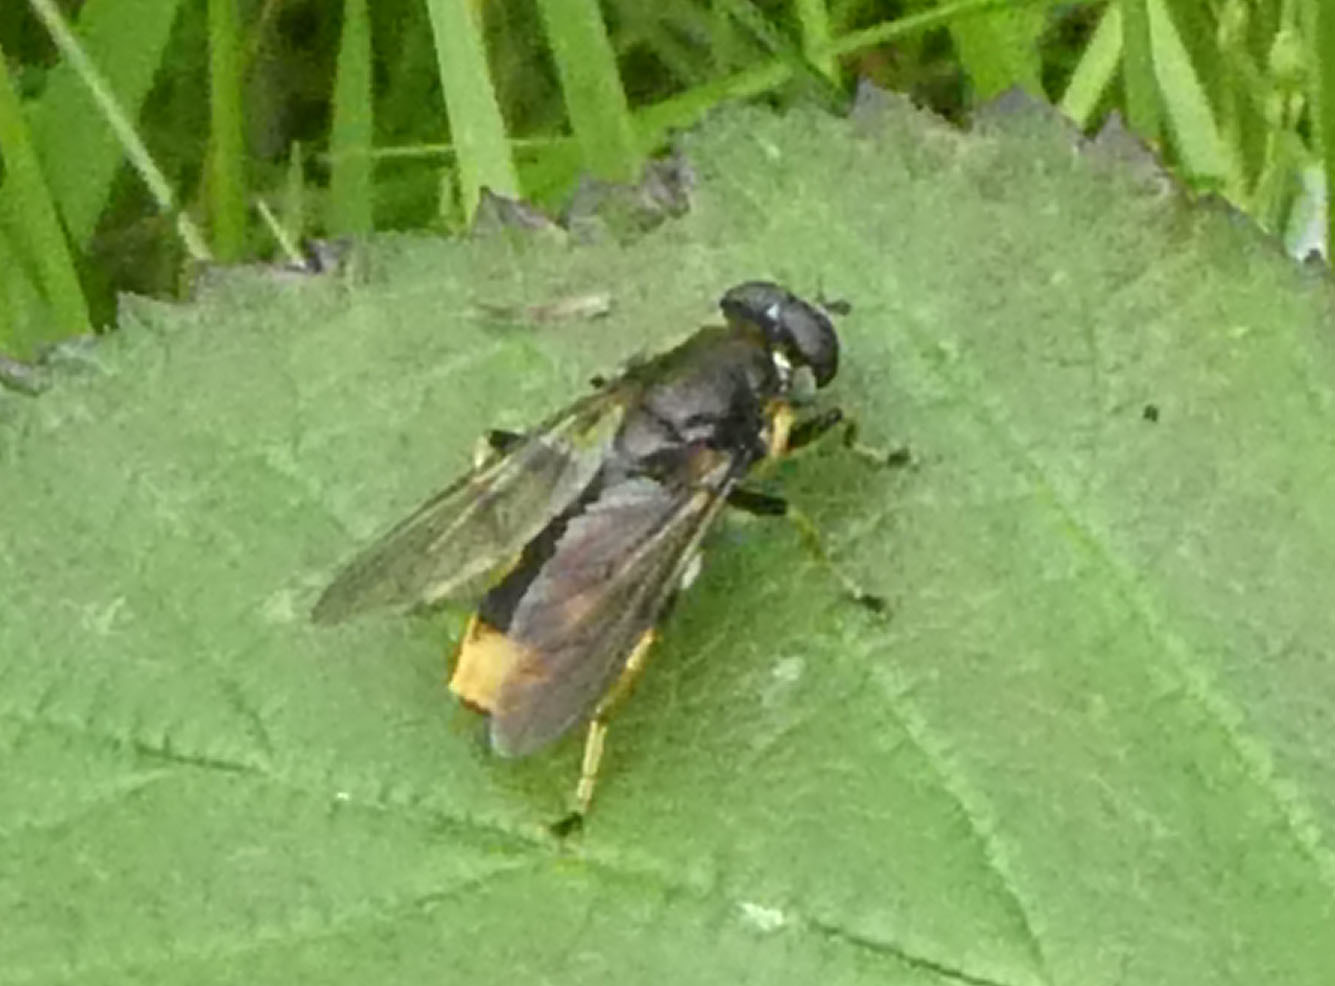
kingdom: Animalia
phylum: Arthropoda
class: Insecta
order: Diptera
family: Syrphidae
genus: Xylota
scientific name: Xylota sylvarum
